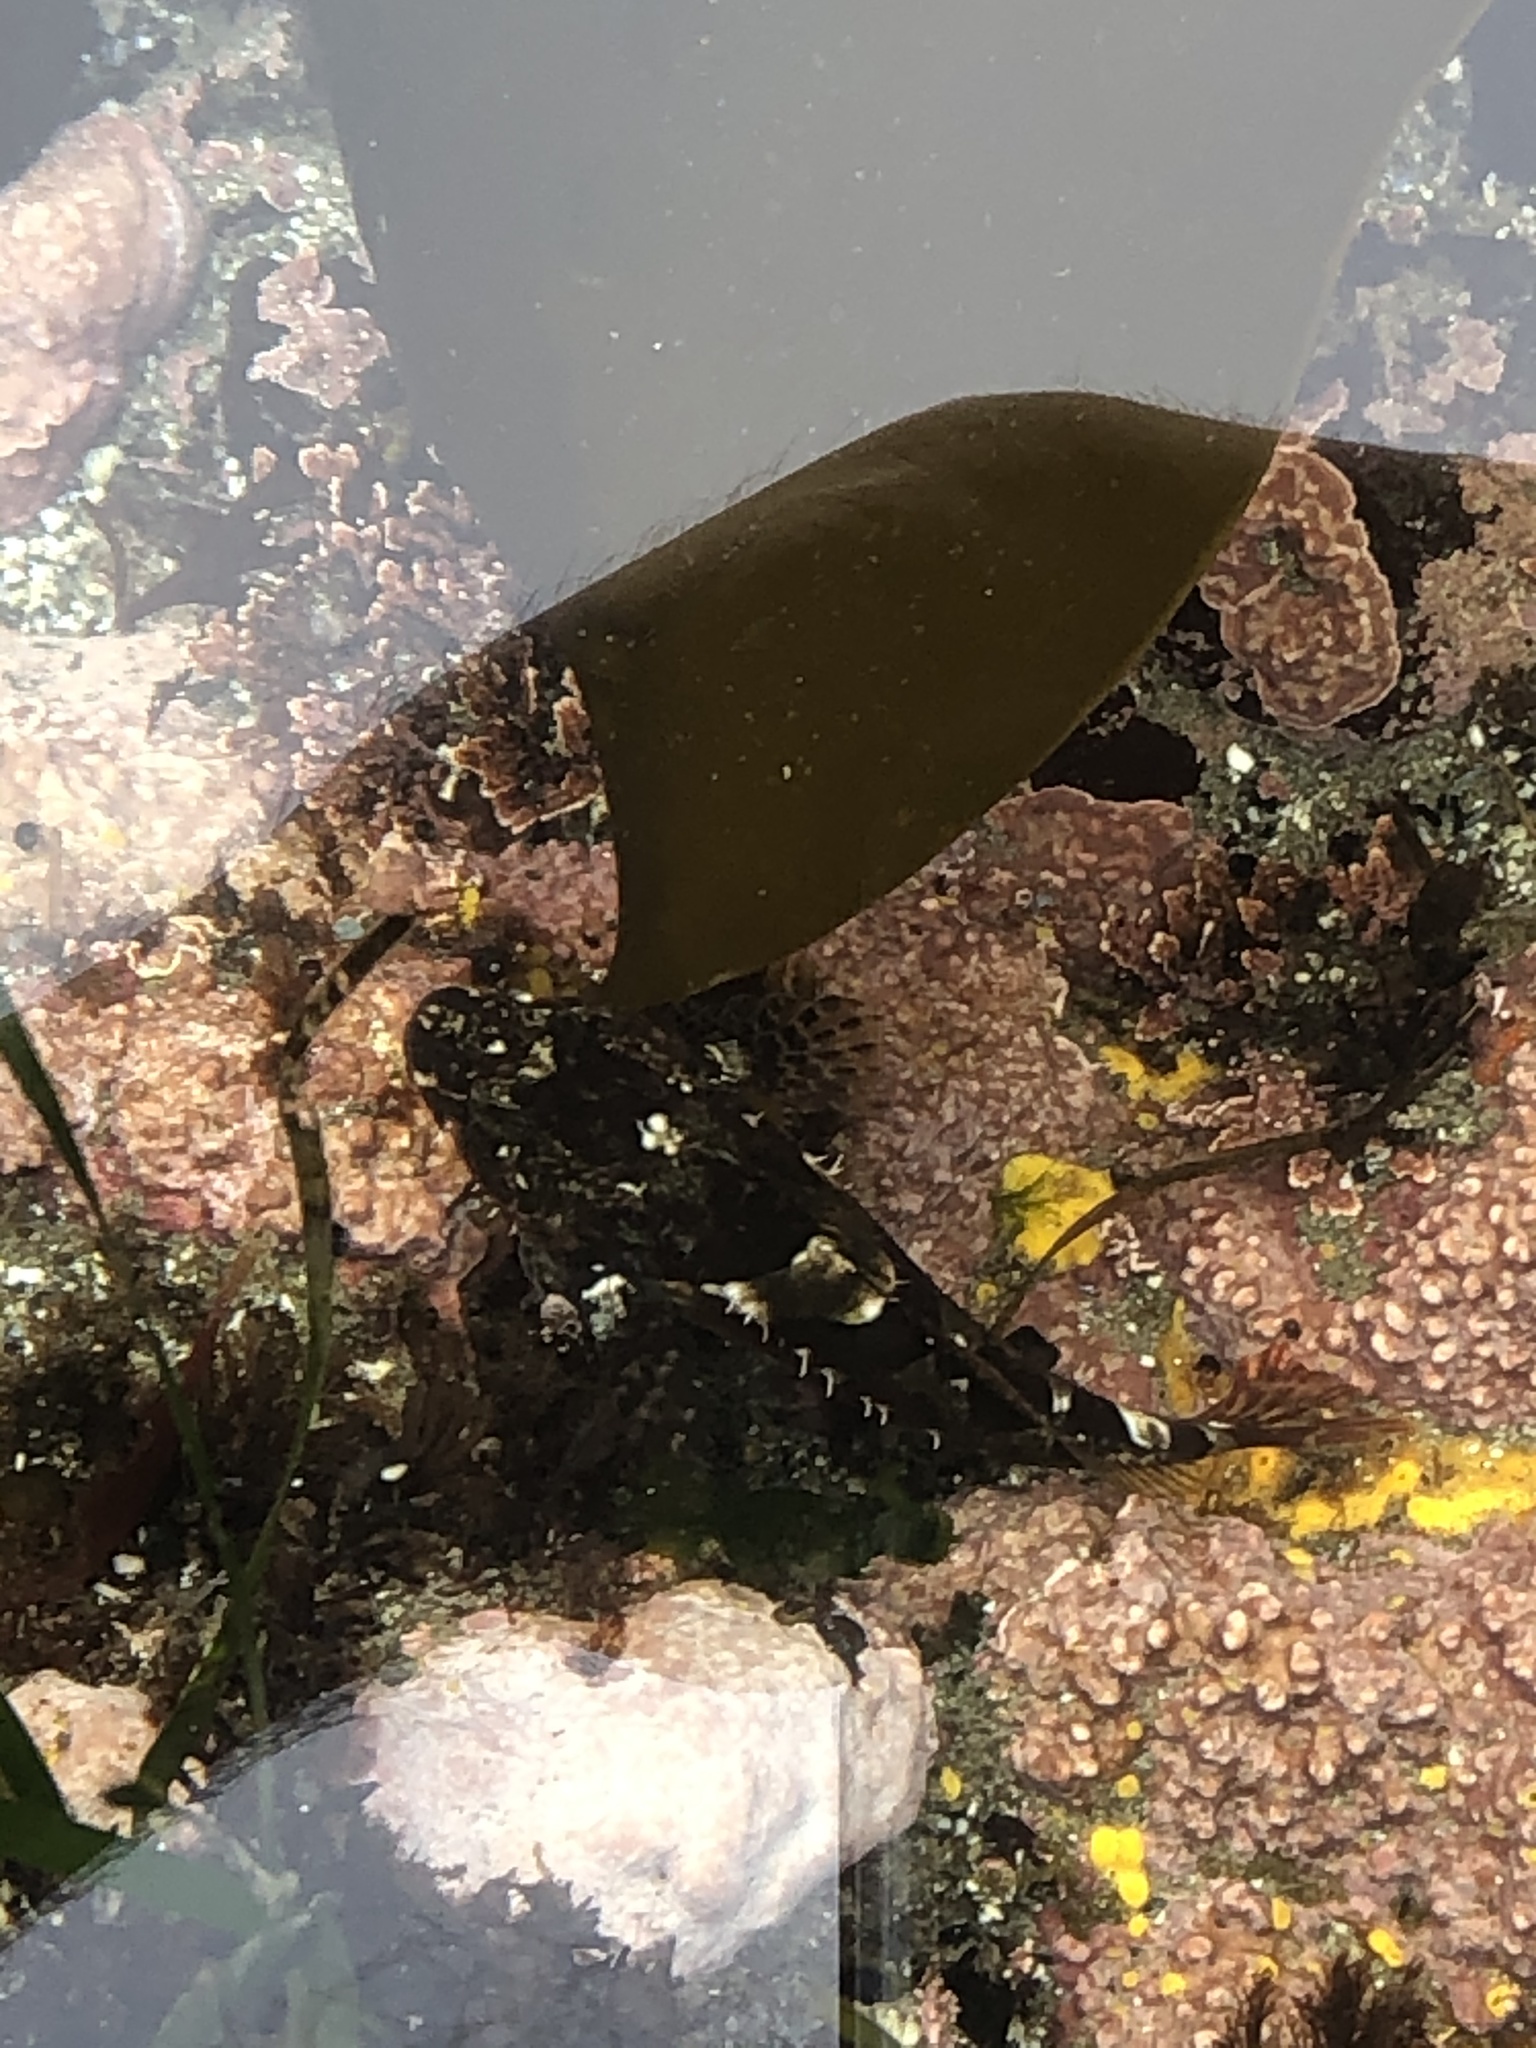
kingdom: Animalia
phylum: Chordata
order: Scorpaeniformes
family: Cottidae
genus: Oligocottus
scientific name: Oligocottus maculosus
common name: Tidepool sculpin
